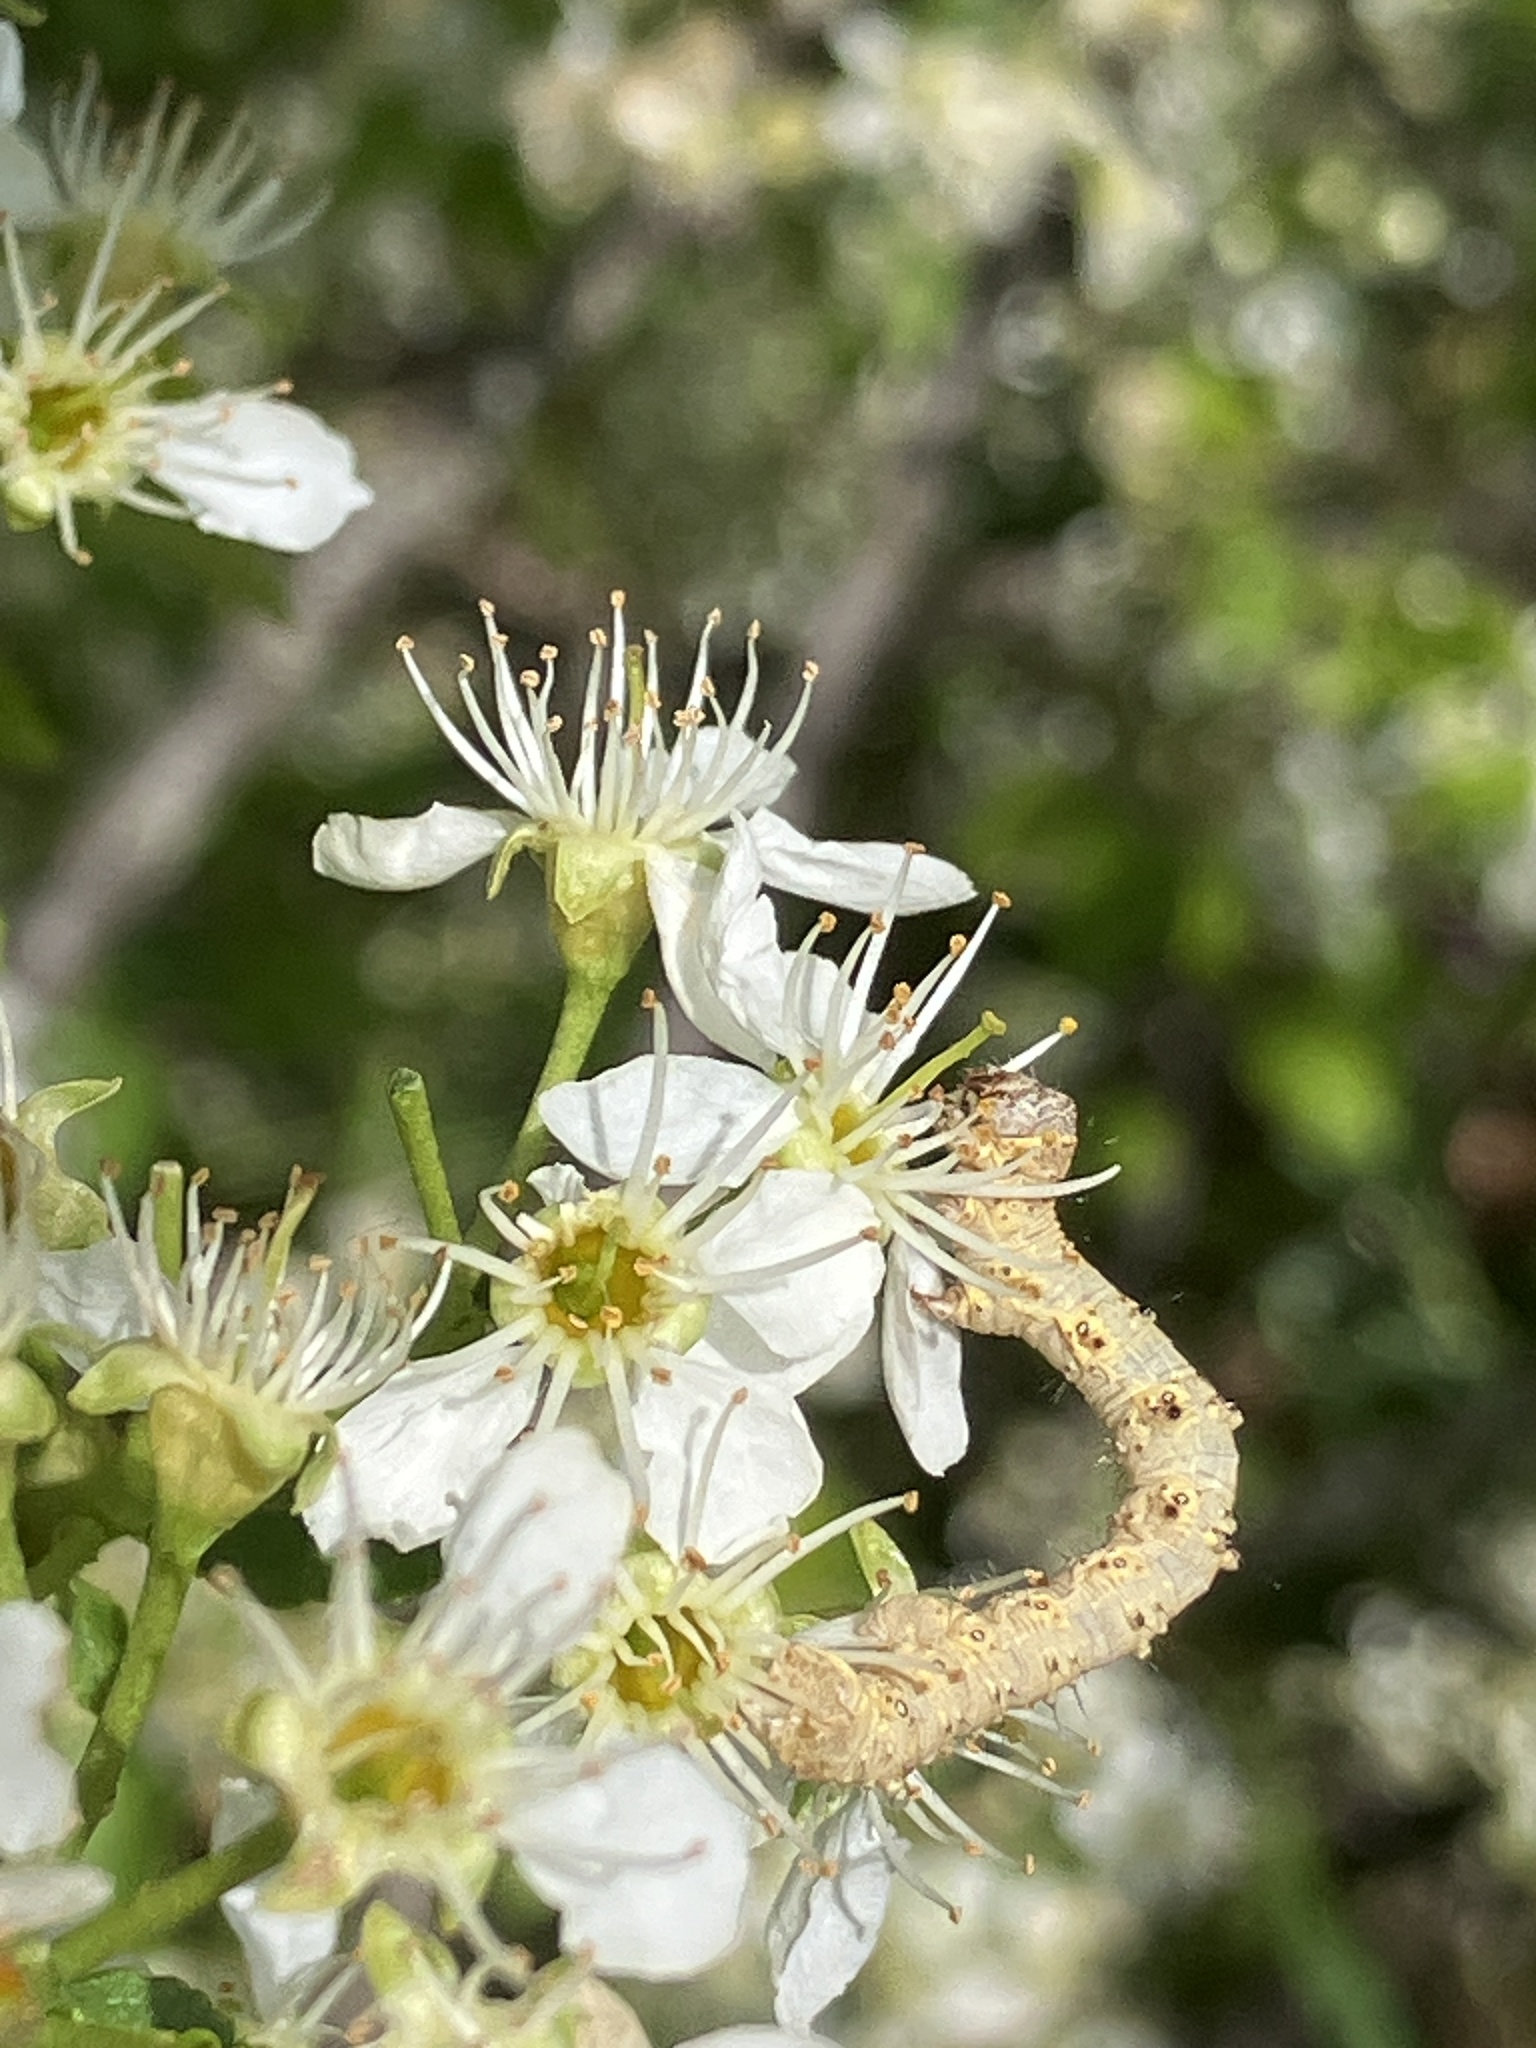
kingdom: Animalia
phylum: Arthropoda
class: Insecta
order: Lepidoptera
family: Geometridae
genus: Phigalia
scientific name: Phigalia pilosaria
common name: Pale brindled beauty
